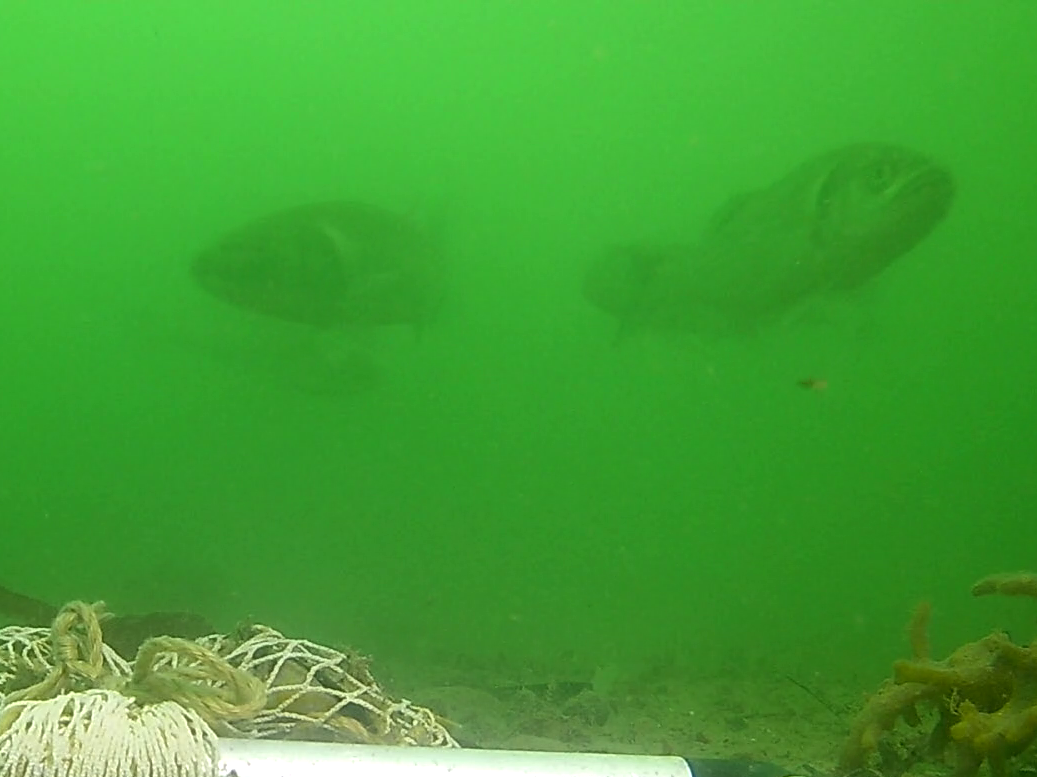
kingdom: Animalia
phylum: Chordata
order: Perciformes
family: Moronidae
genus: Dicentrarchus
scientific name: Dicentrarchus labrax
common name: European seabass
